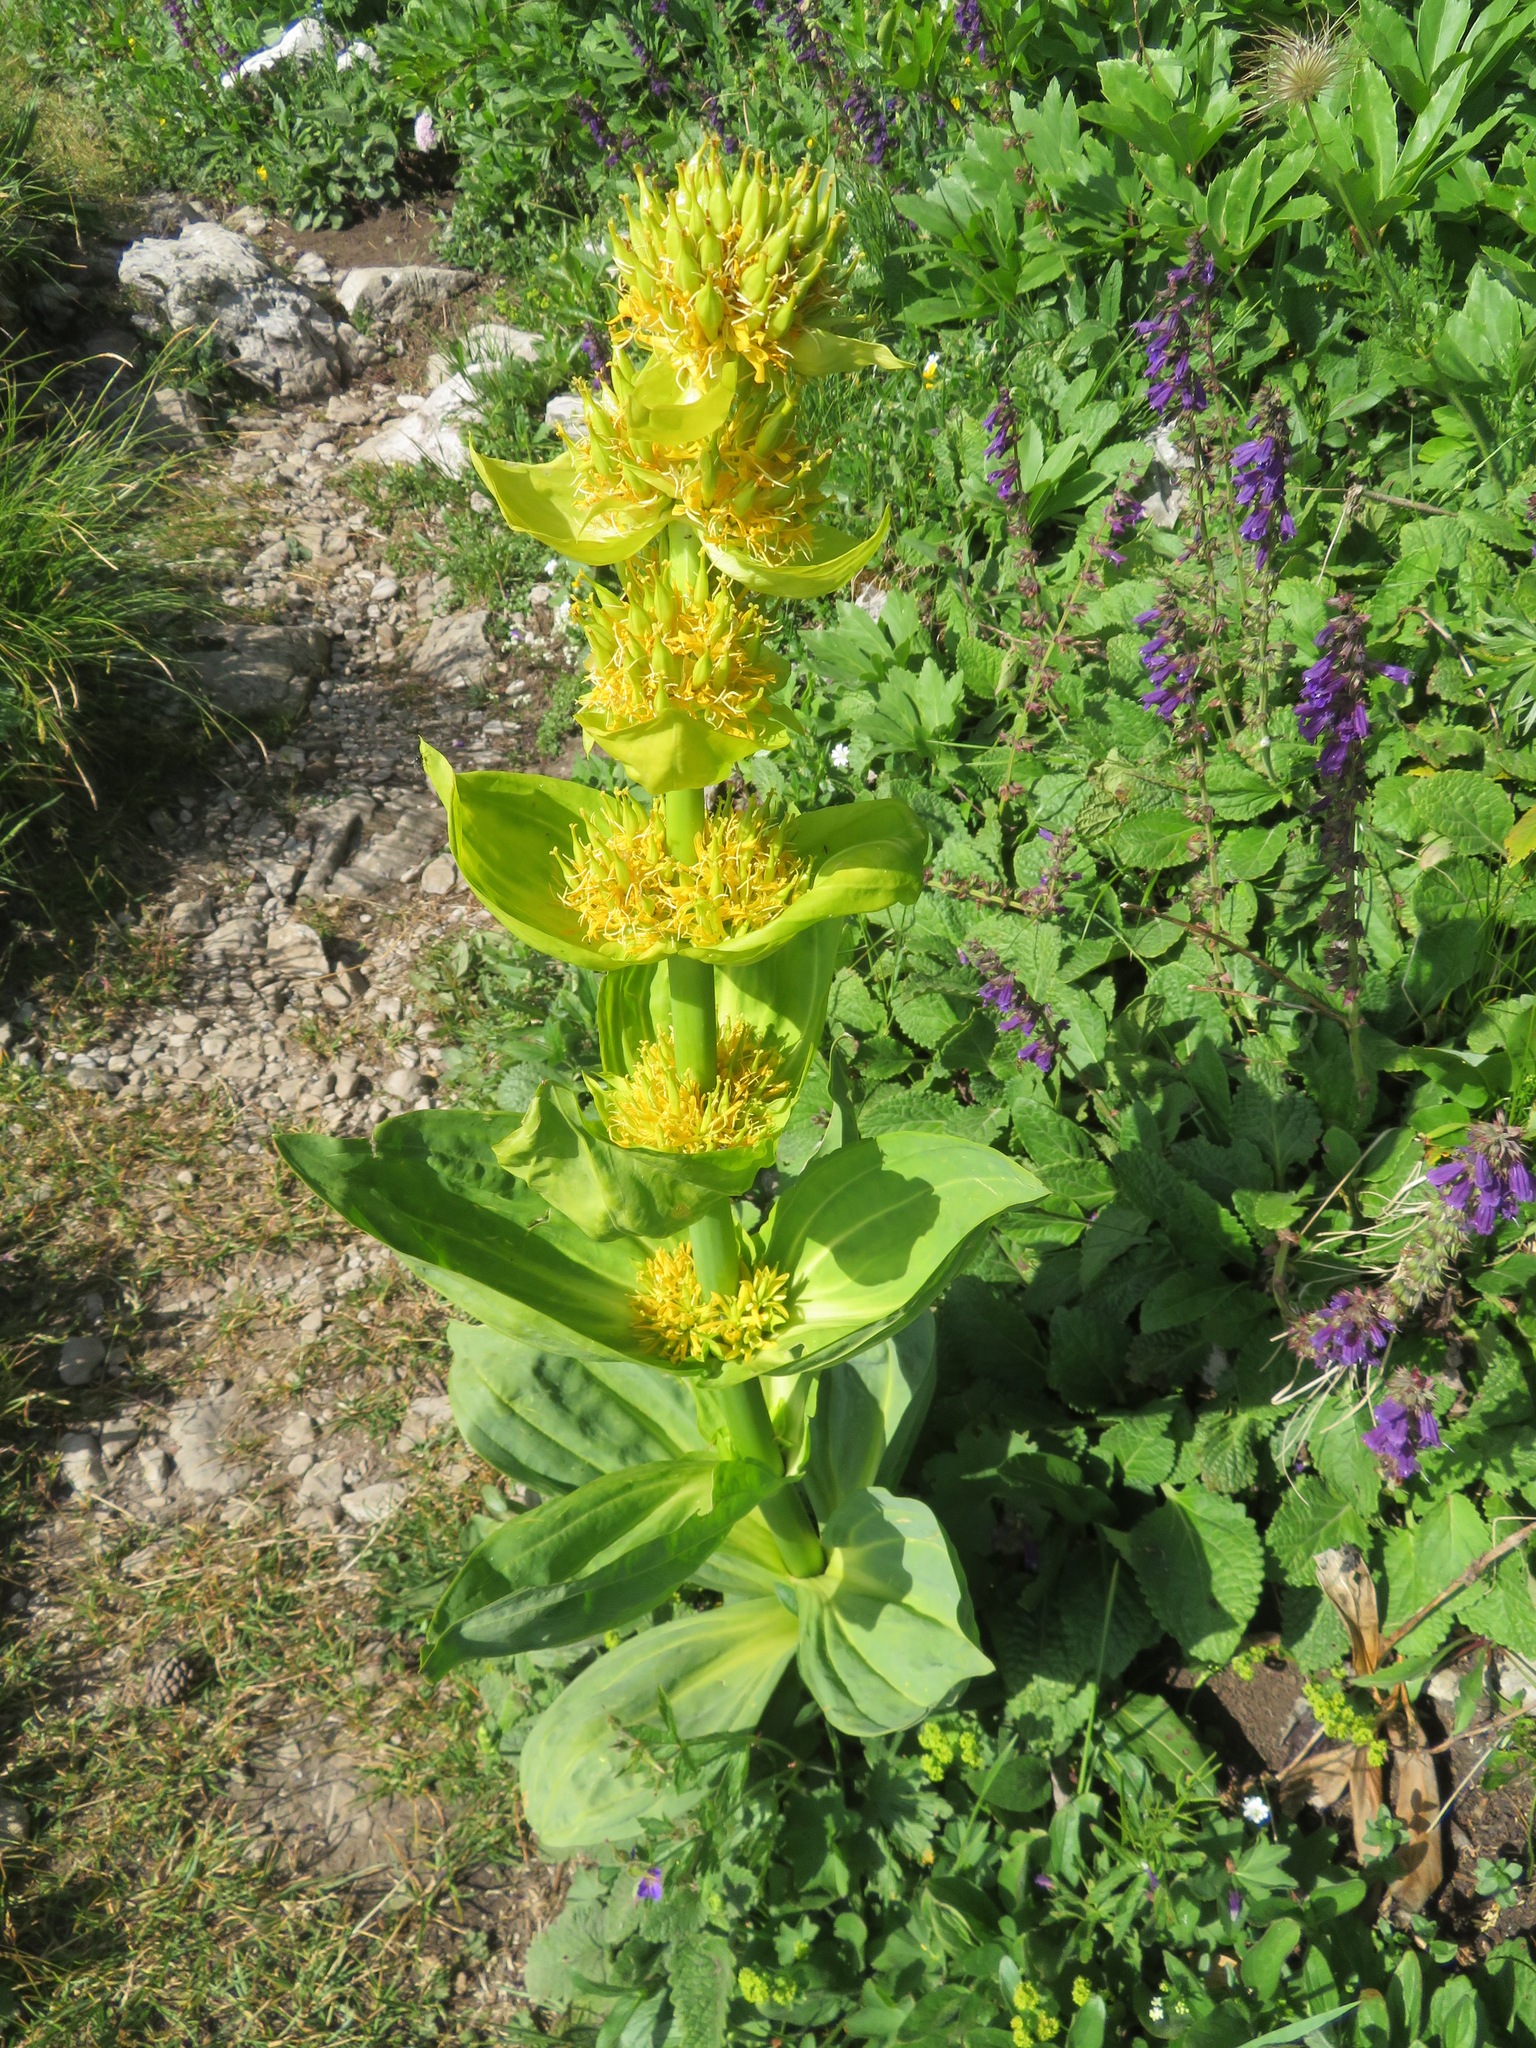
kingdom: Plantae
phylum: Tracheophyta
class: Magnoliopsida
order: Gentianales
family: Gentianaceae
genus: Gentiana
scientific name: Gentiana lutea
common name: Great yellow gentian
